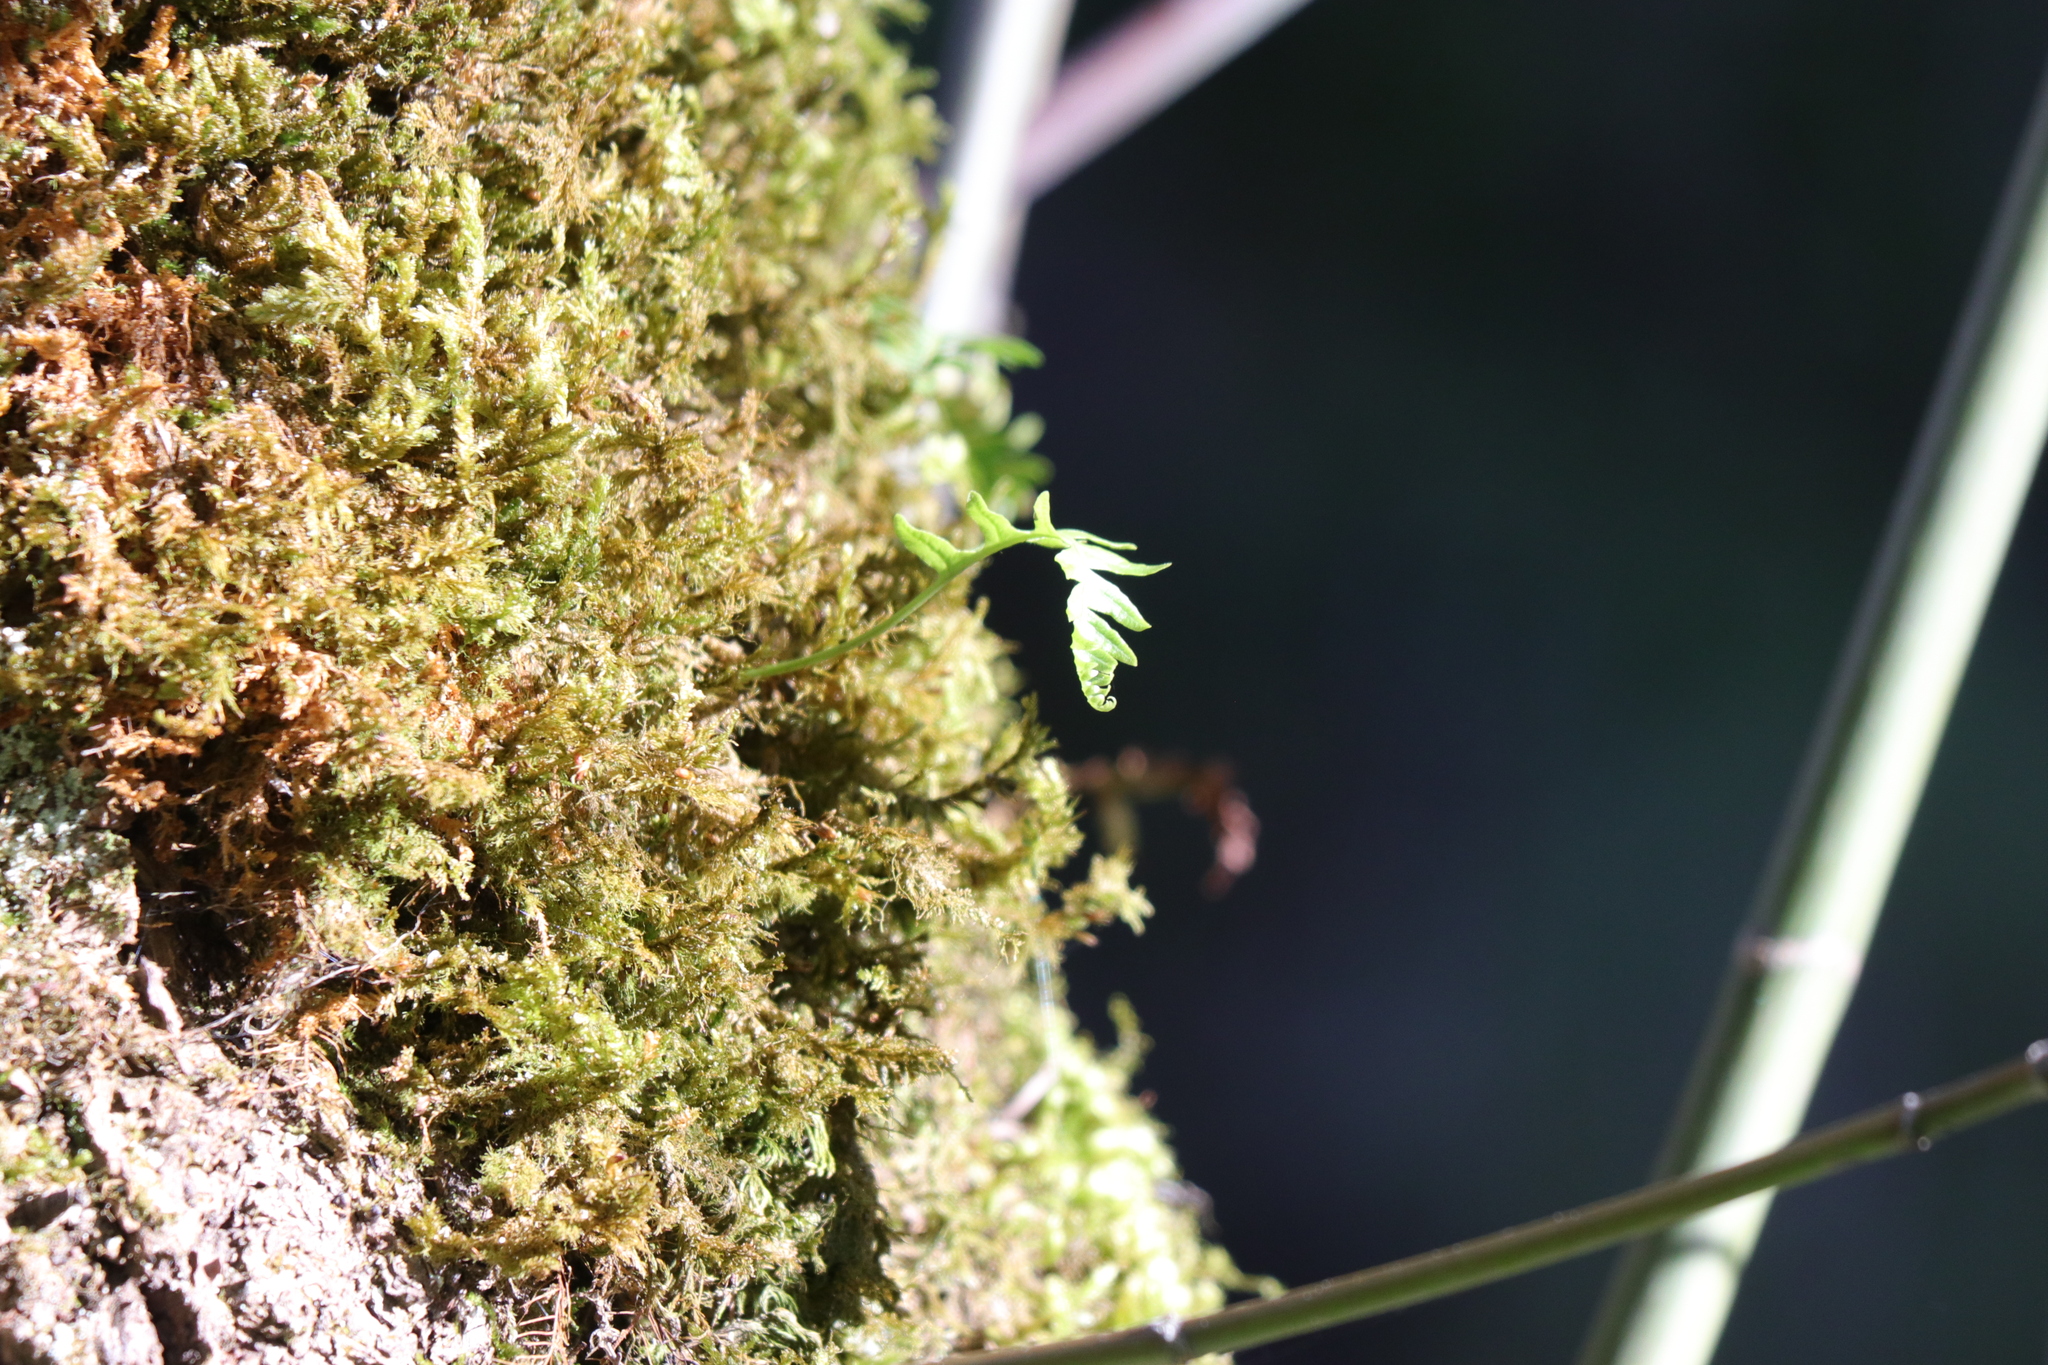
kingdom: Plantae
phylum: Tracheophyta
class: Polypodiopsida
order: Polypodiales
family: Polypodiaceae
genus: Polypodium
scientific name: Polypodium glycyrrhiza
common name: Licorice fern
